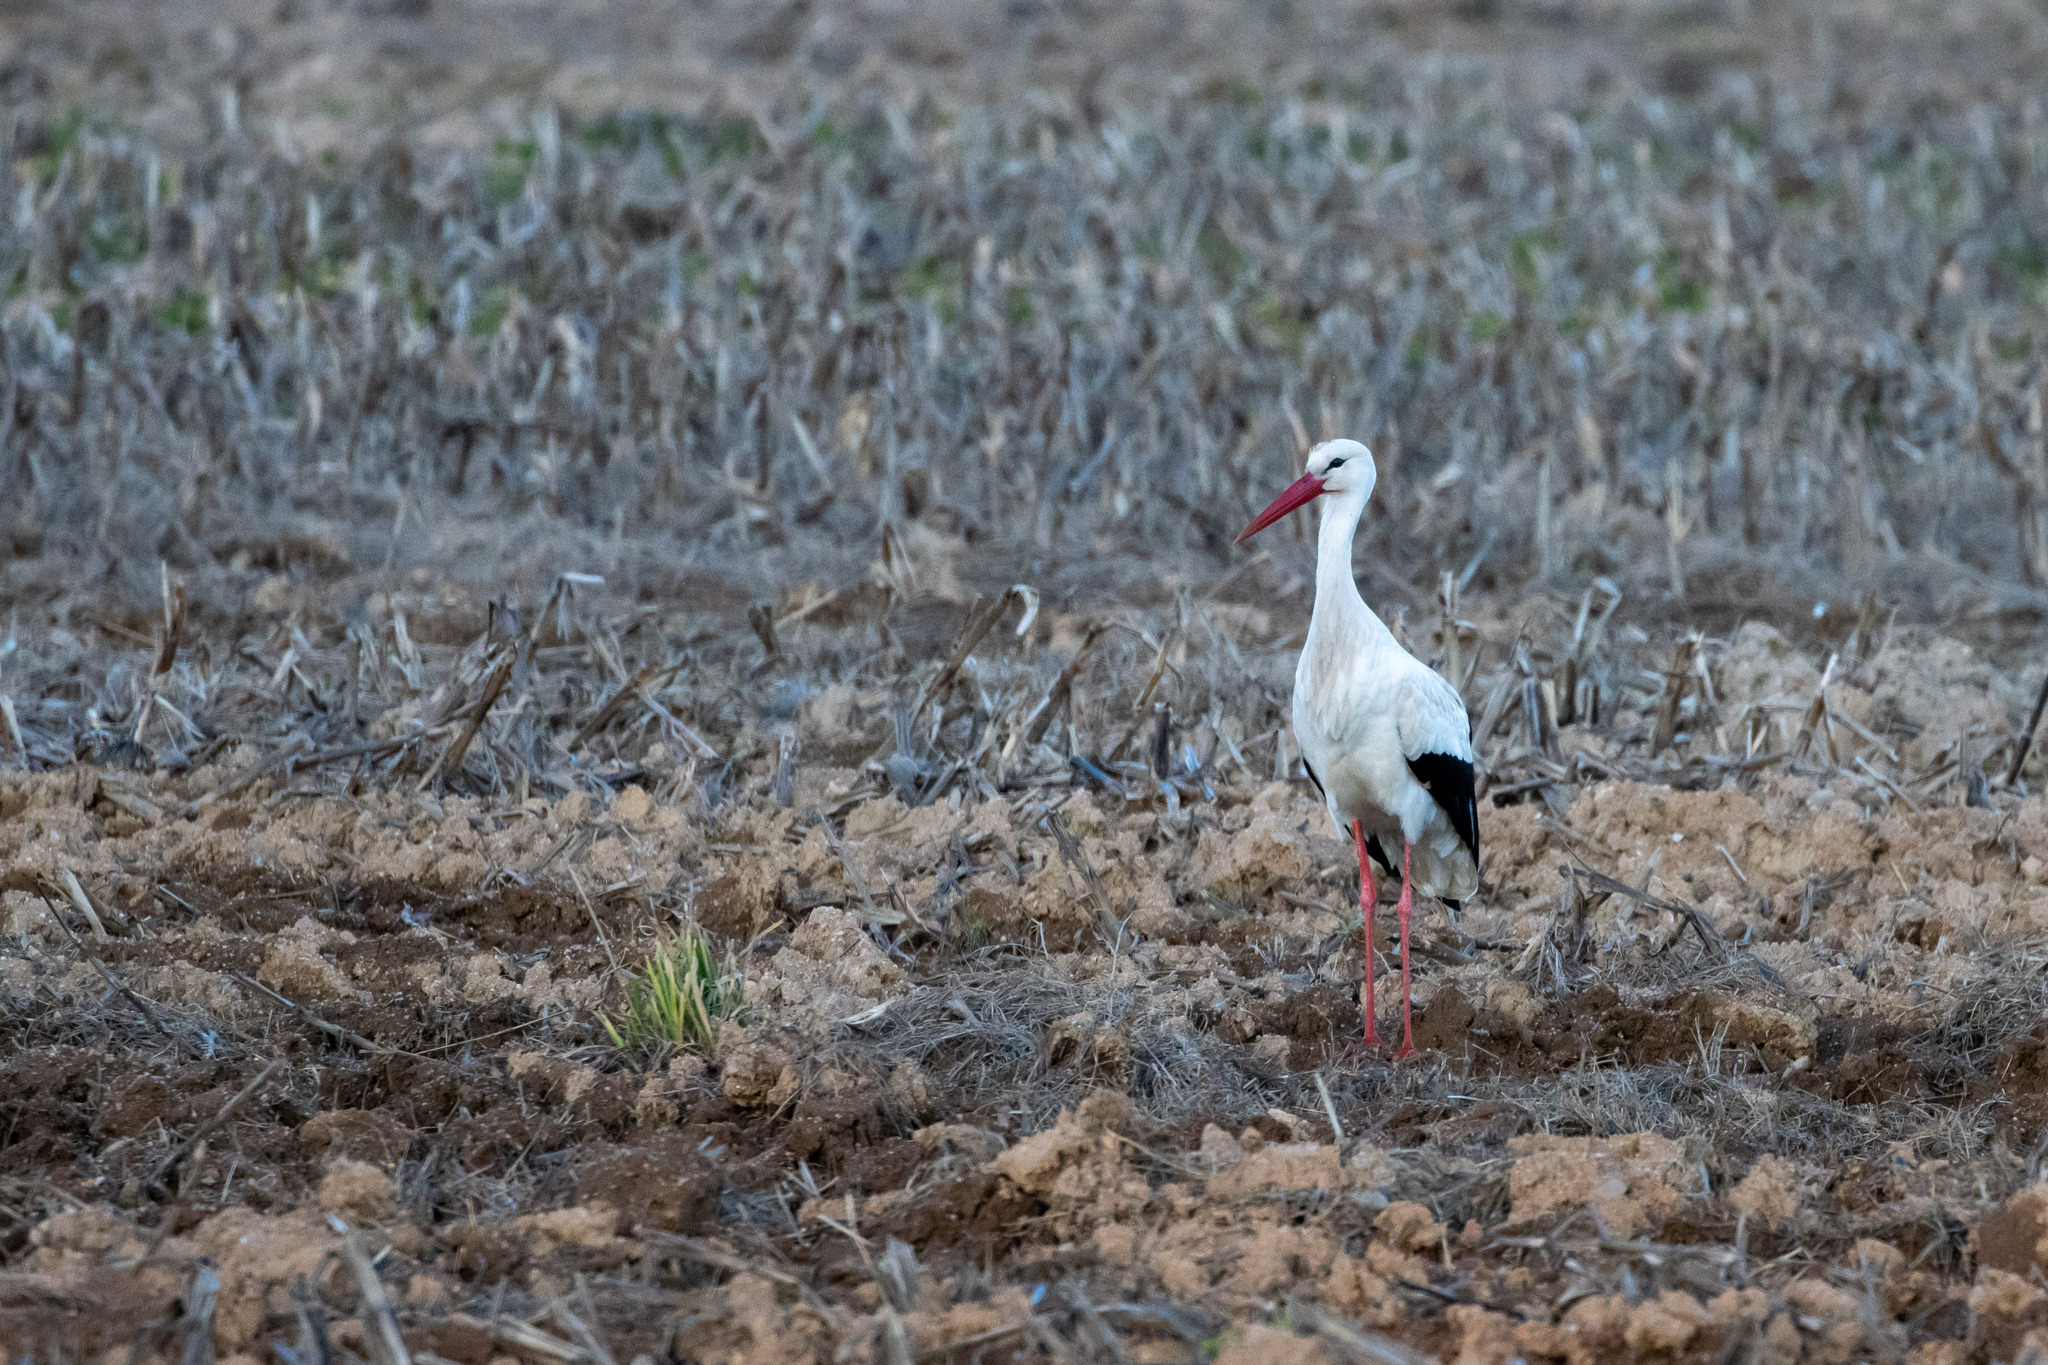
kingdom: Animalia
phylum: Chordata
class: Aves
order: Ciconiiformes
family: Ciconiidae
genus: Ciconia
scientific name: Ciconia ciconia
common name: White stork
